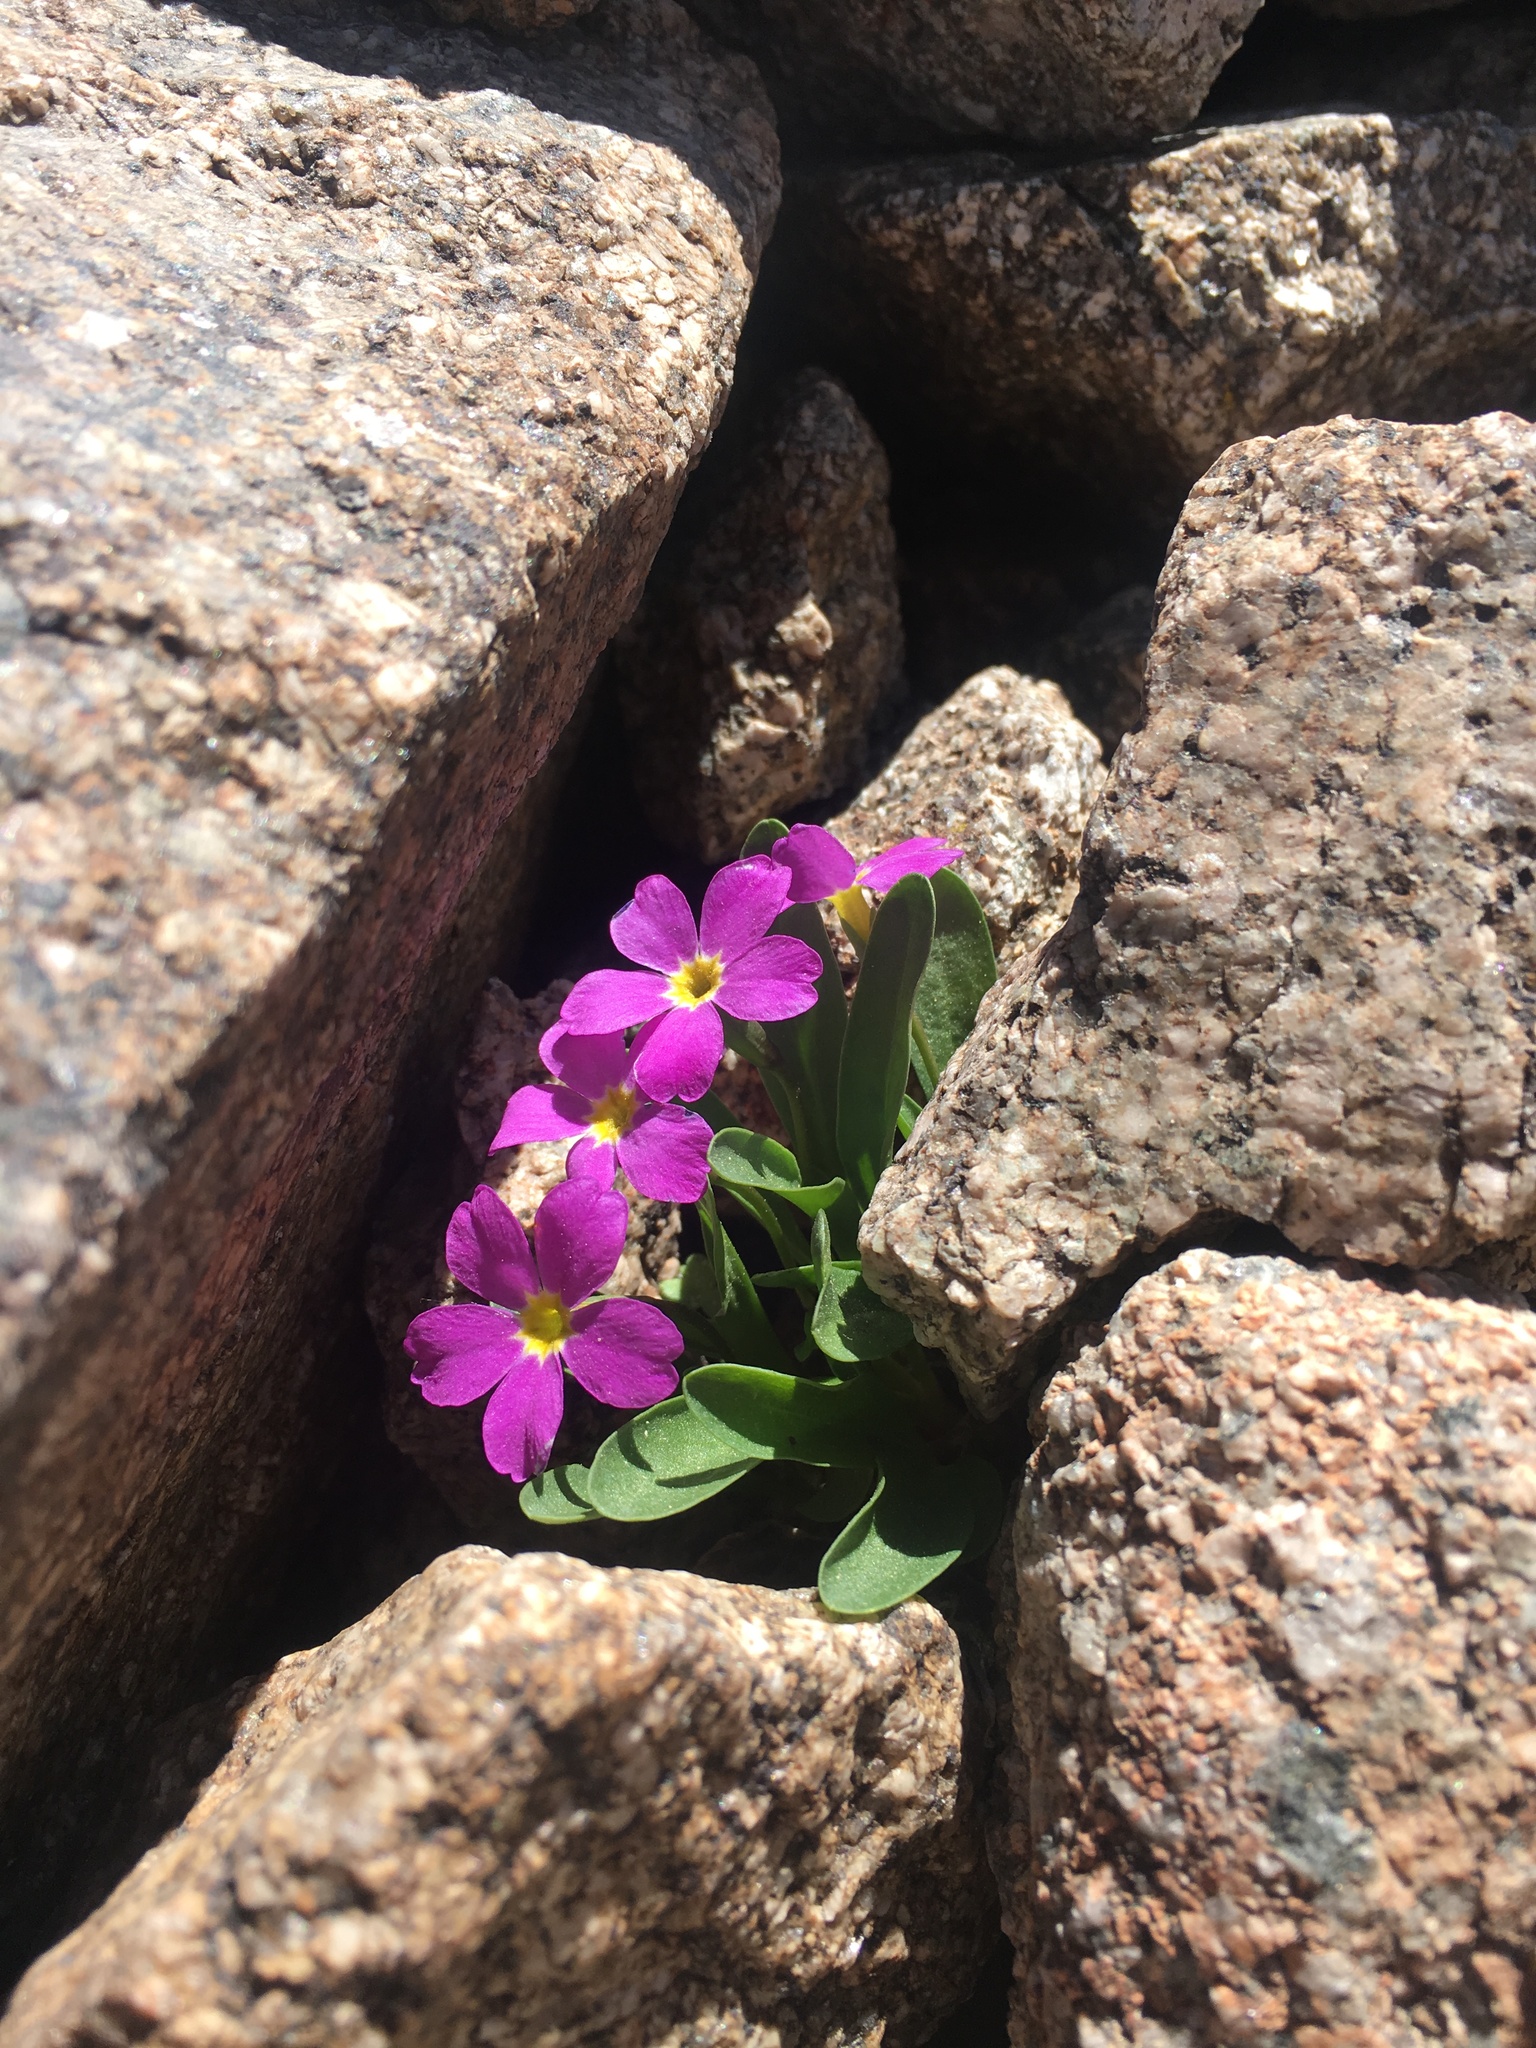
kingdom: Plantae
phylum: Tracheophyta
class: Magnoliopsida
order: Ericales
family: Primulaceae
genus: Primula
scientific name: Primula angustifolia
